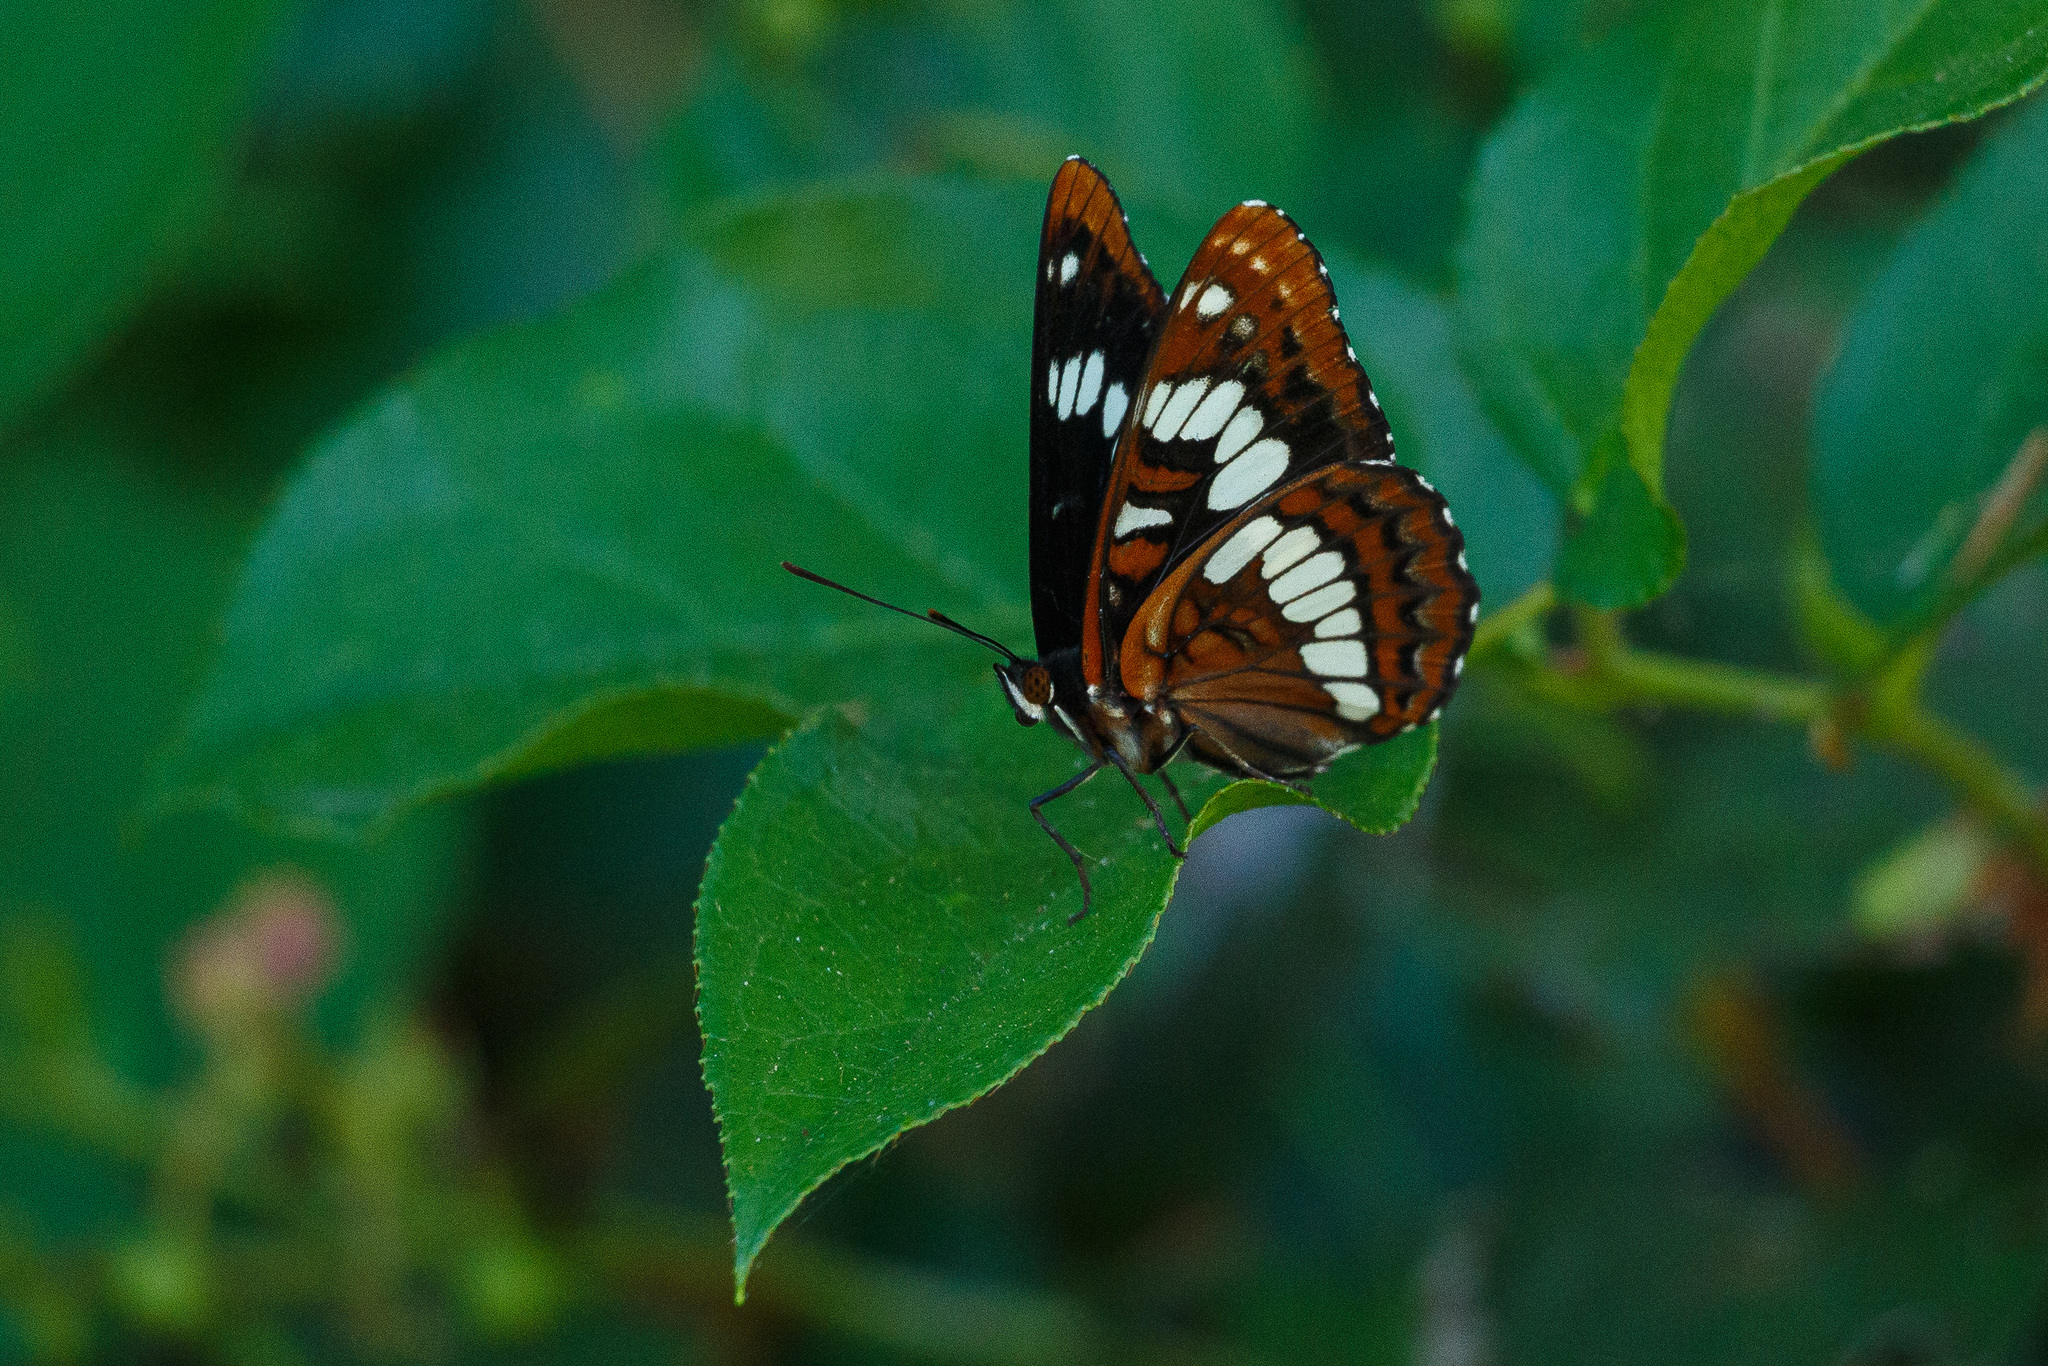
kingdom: Animalia
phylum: Arthropoda
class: Insecta
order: Lepidoptera
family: Nymphalidae
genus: Limenitis
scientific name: Limenitis lorquini
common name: Lorquin's admiral
